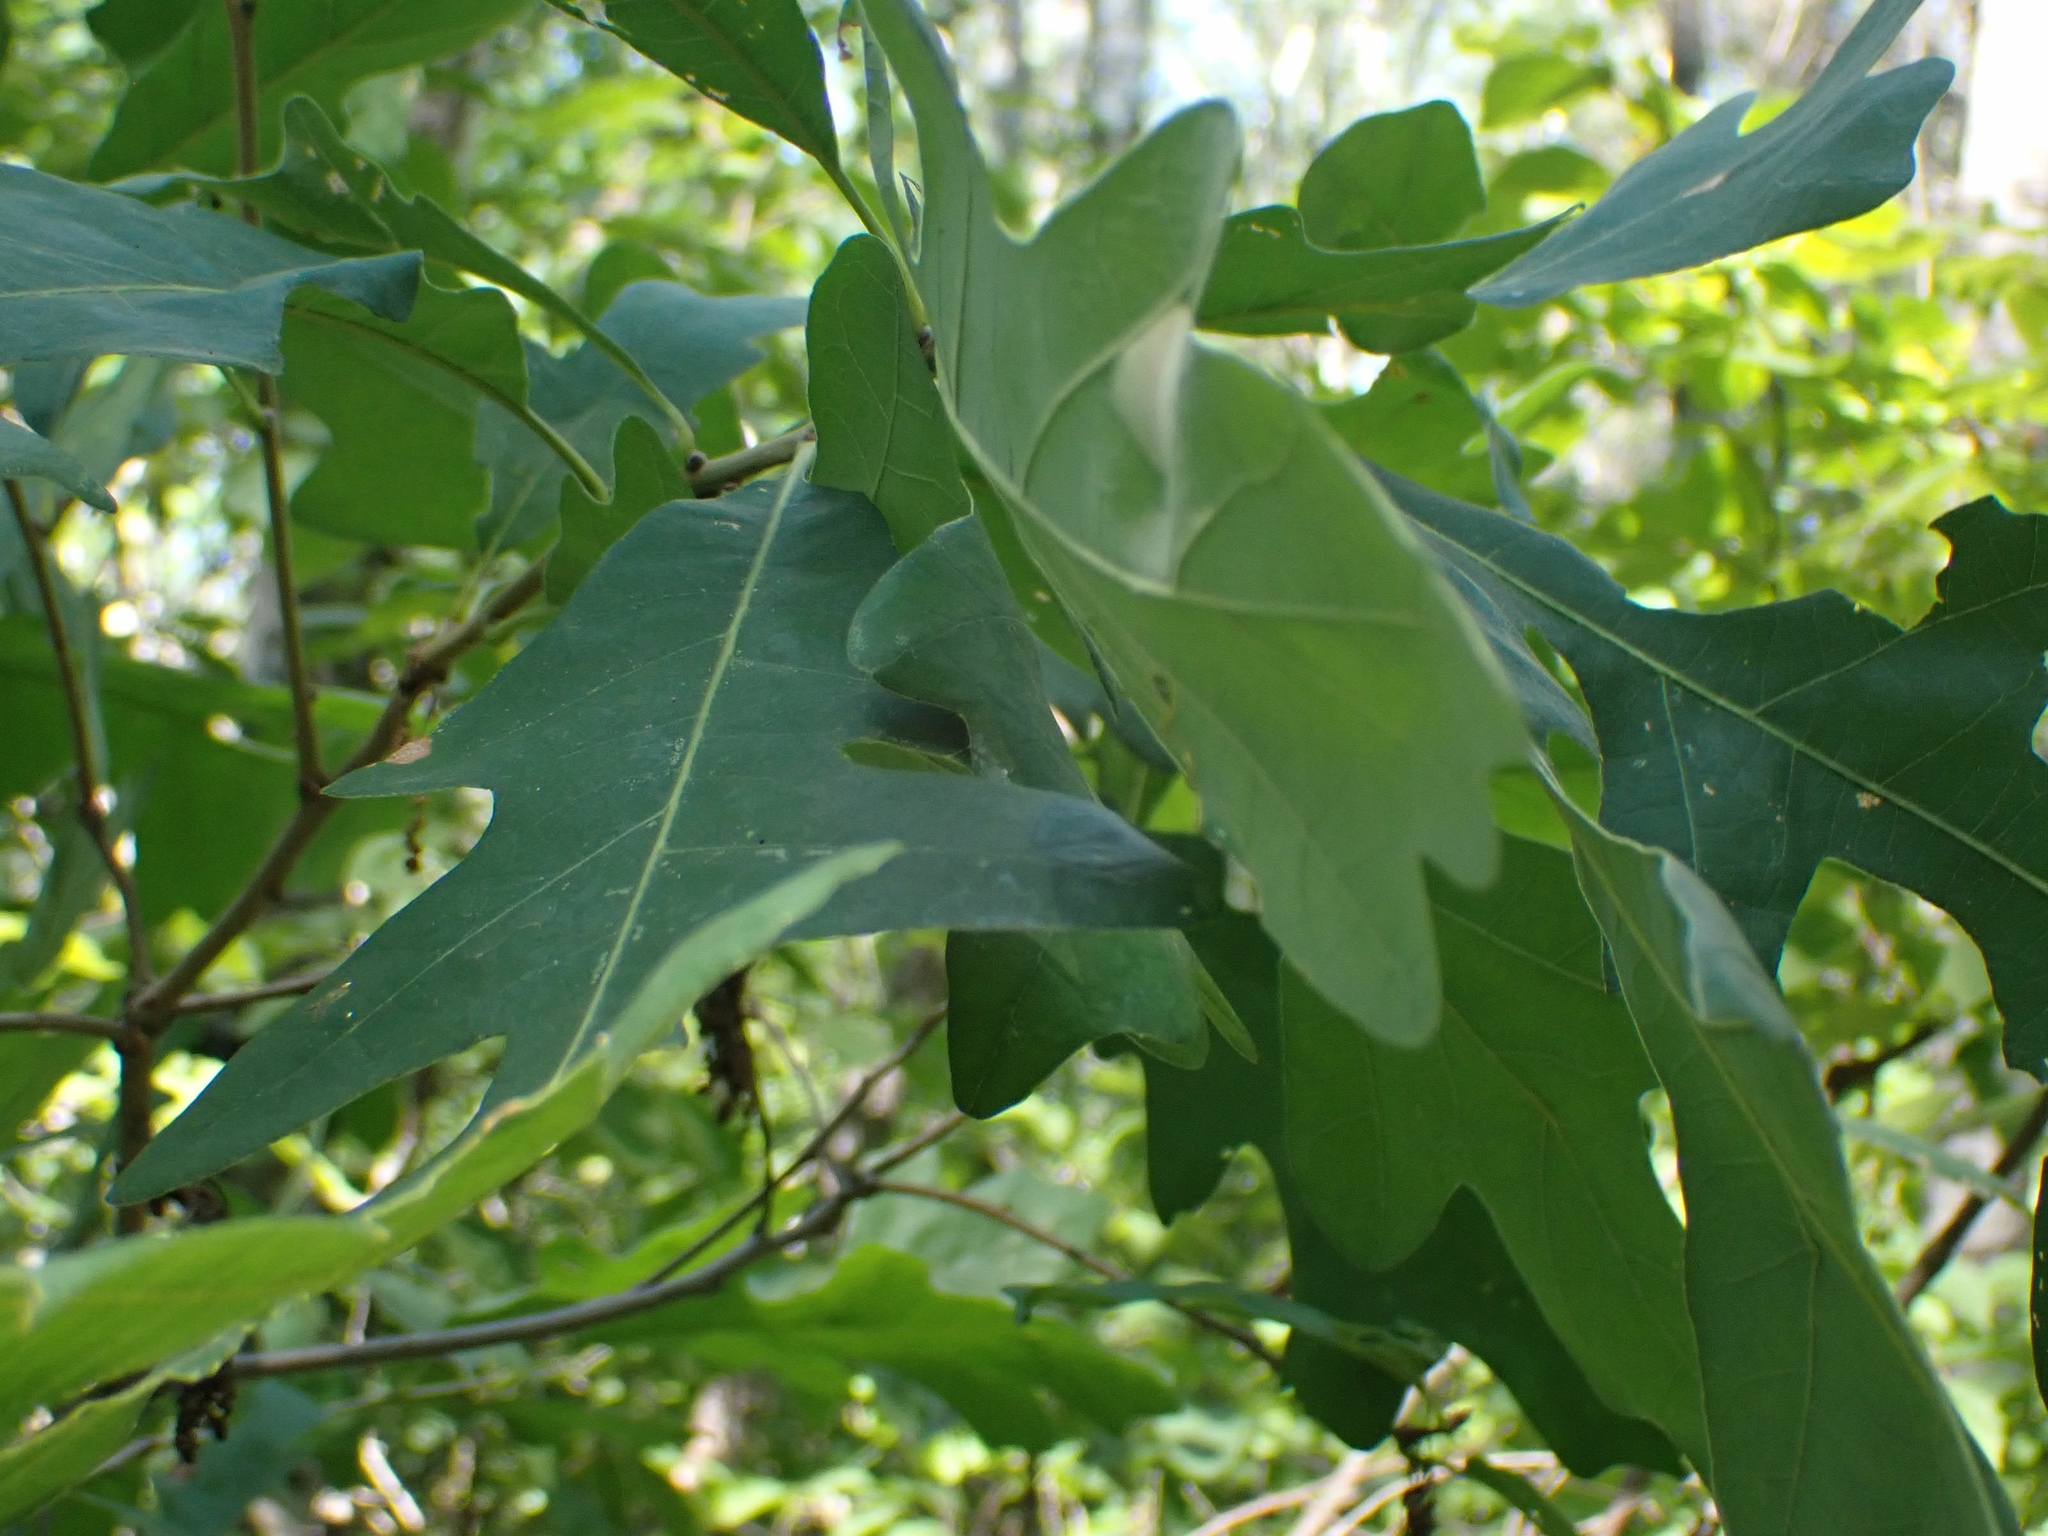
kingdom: Plantae
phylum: Tracheophyta
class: Magnoliopsida
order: Fagales
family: Fagaceae
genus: Quercus
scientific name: Quercus macrocarpa
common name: Bur oak
